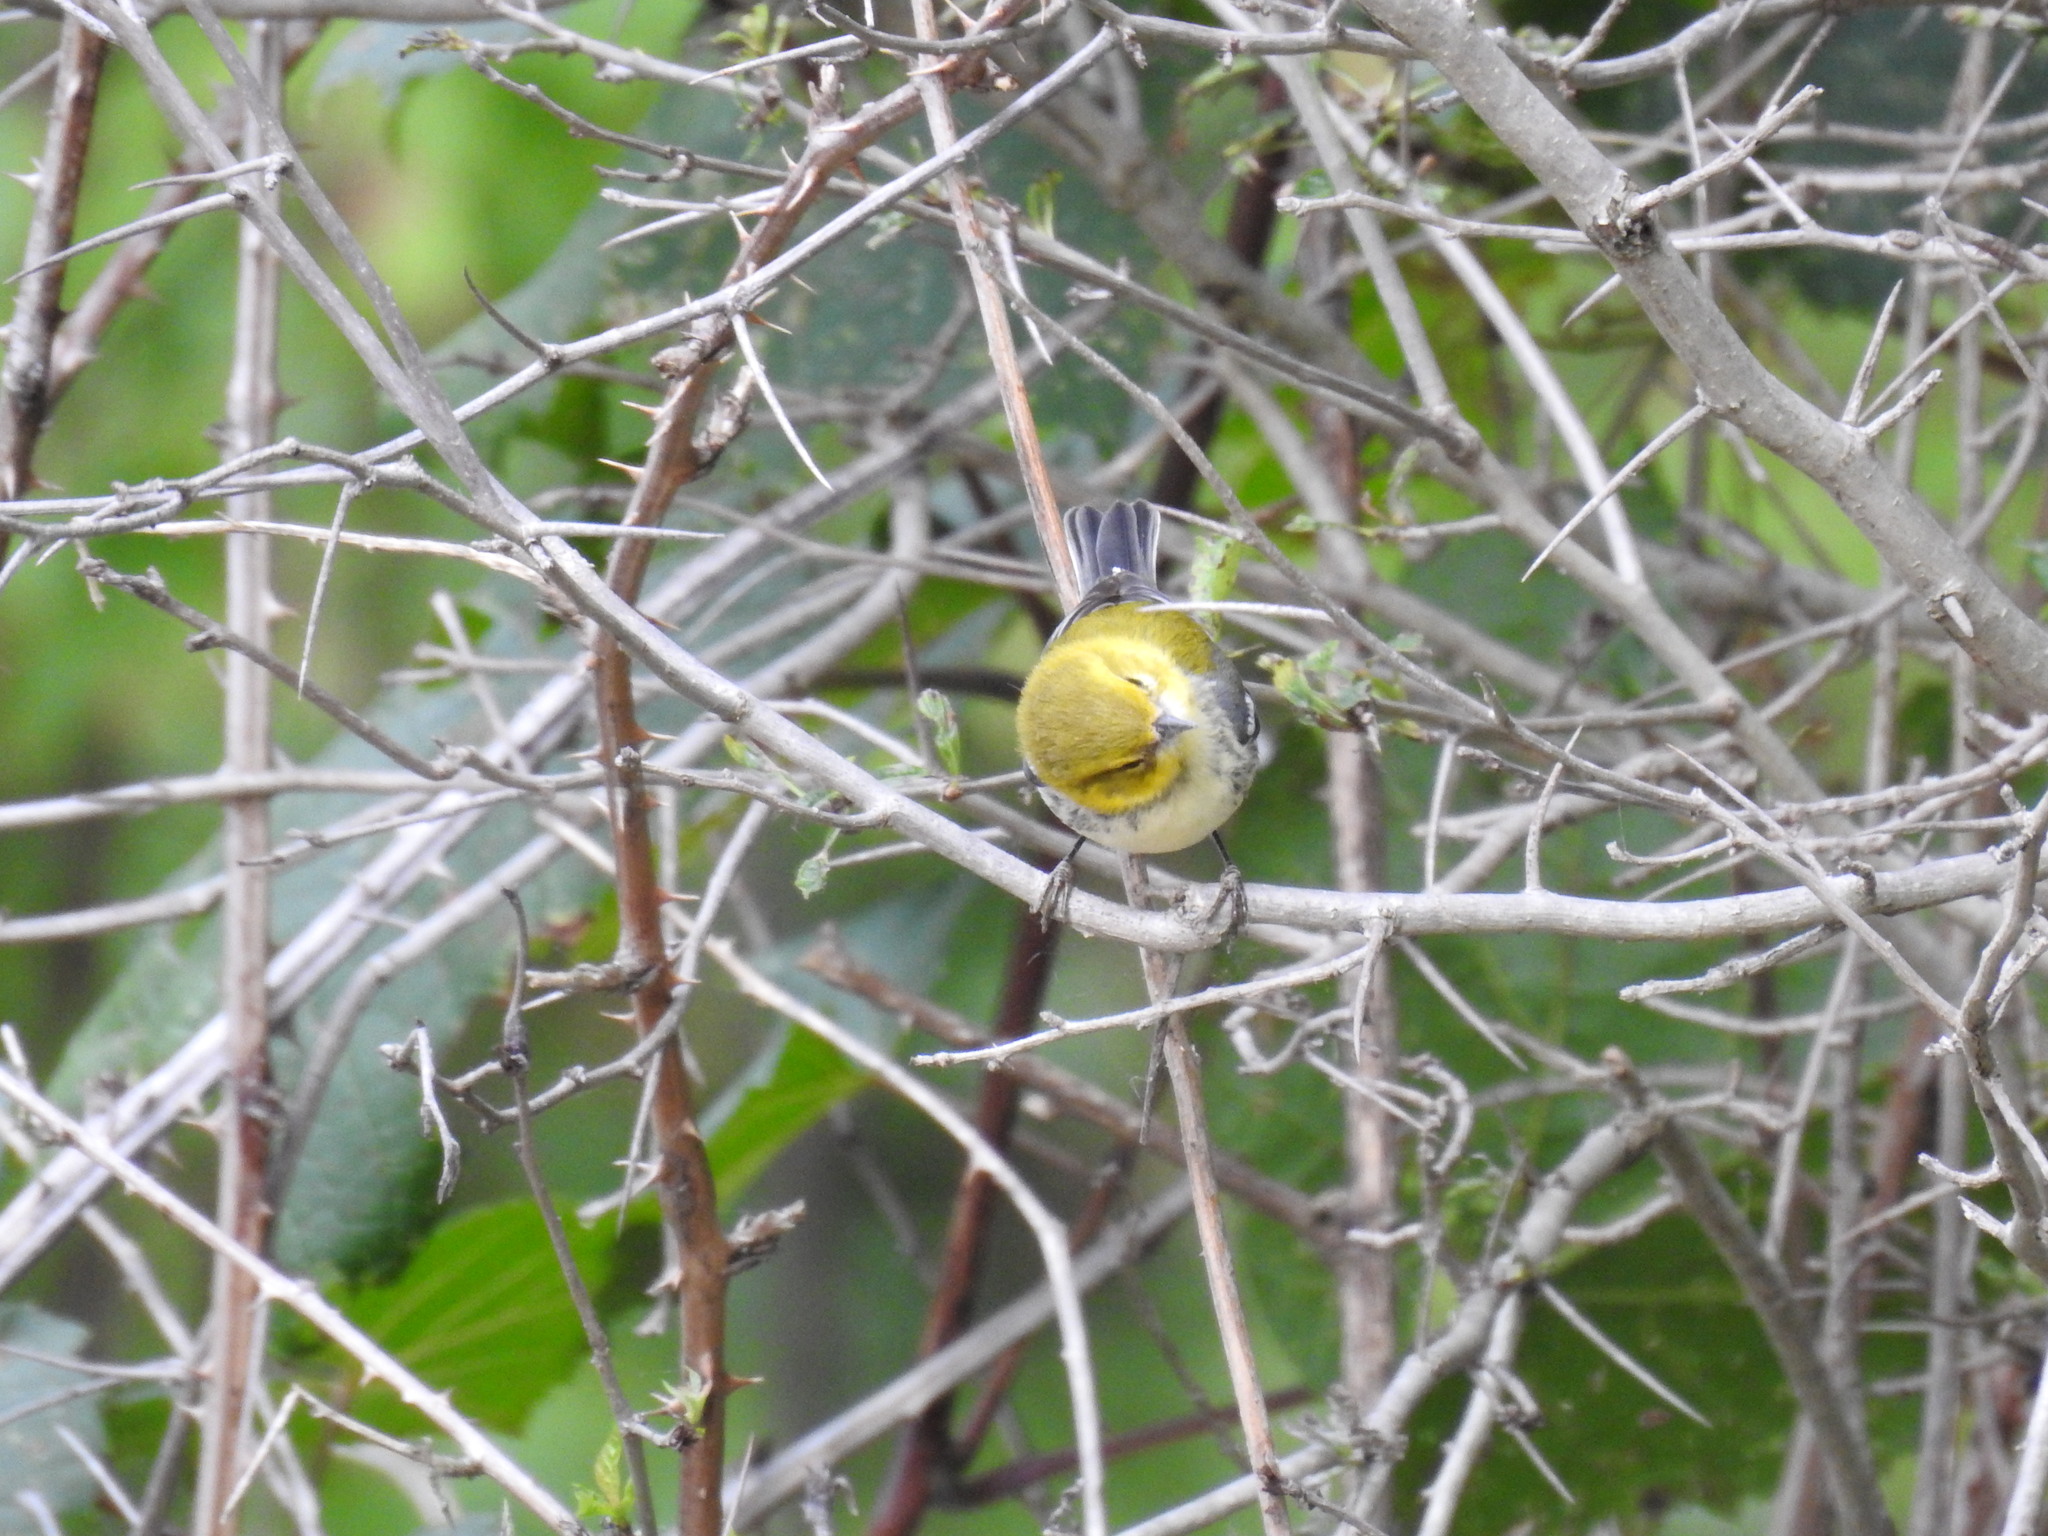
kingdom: Animalia
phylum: Chordata
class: Aves
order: Passeriformes
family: Parulidae
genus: Setophaga
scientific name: Setophaga virens
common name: Black-throated green warbler
